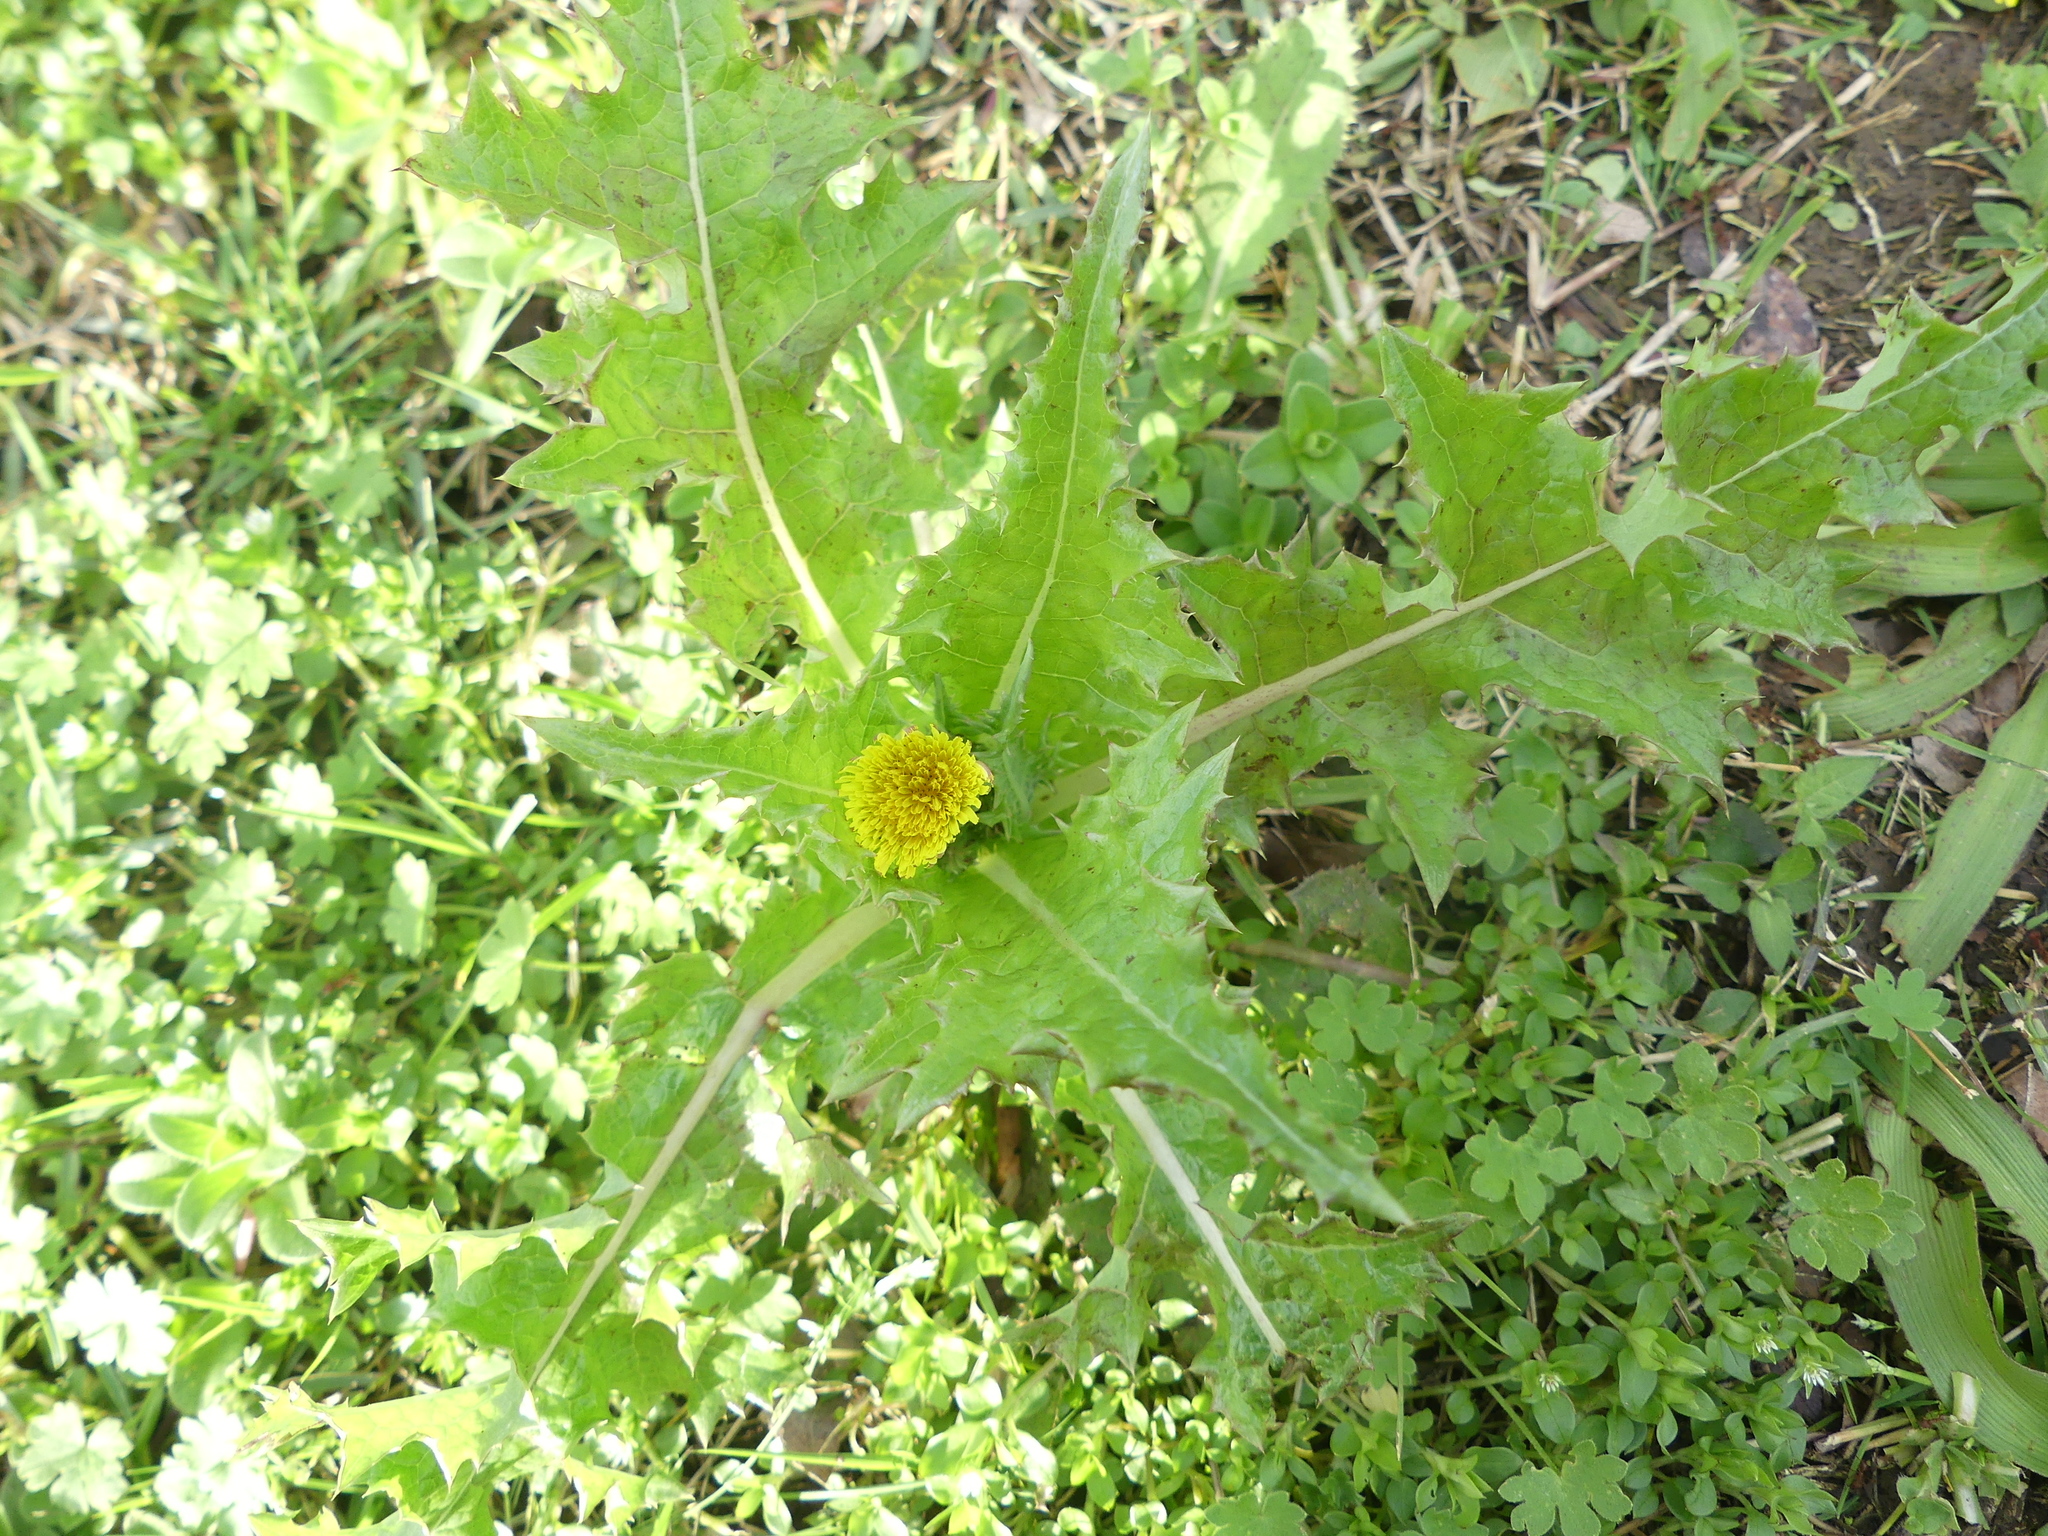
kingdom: Plantae
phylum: Tracheophyta
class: Magnoliopsida
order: Asterales
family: Asteraceae
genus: Sonchus
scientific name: Sonchus asper
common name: Prickly sow-thistle
